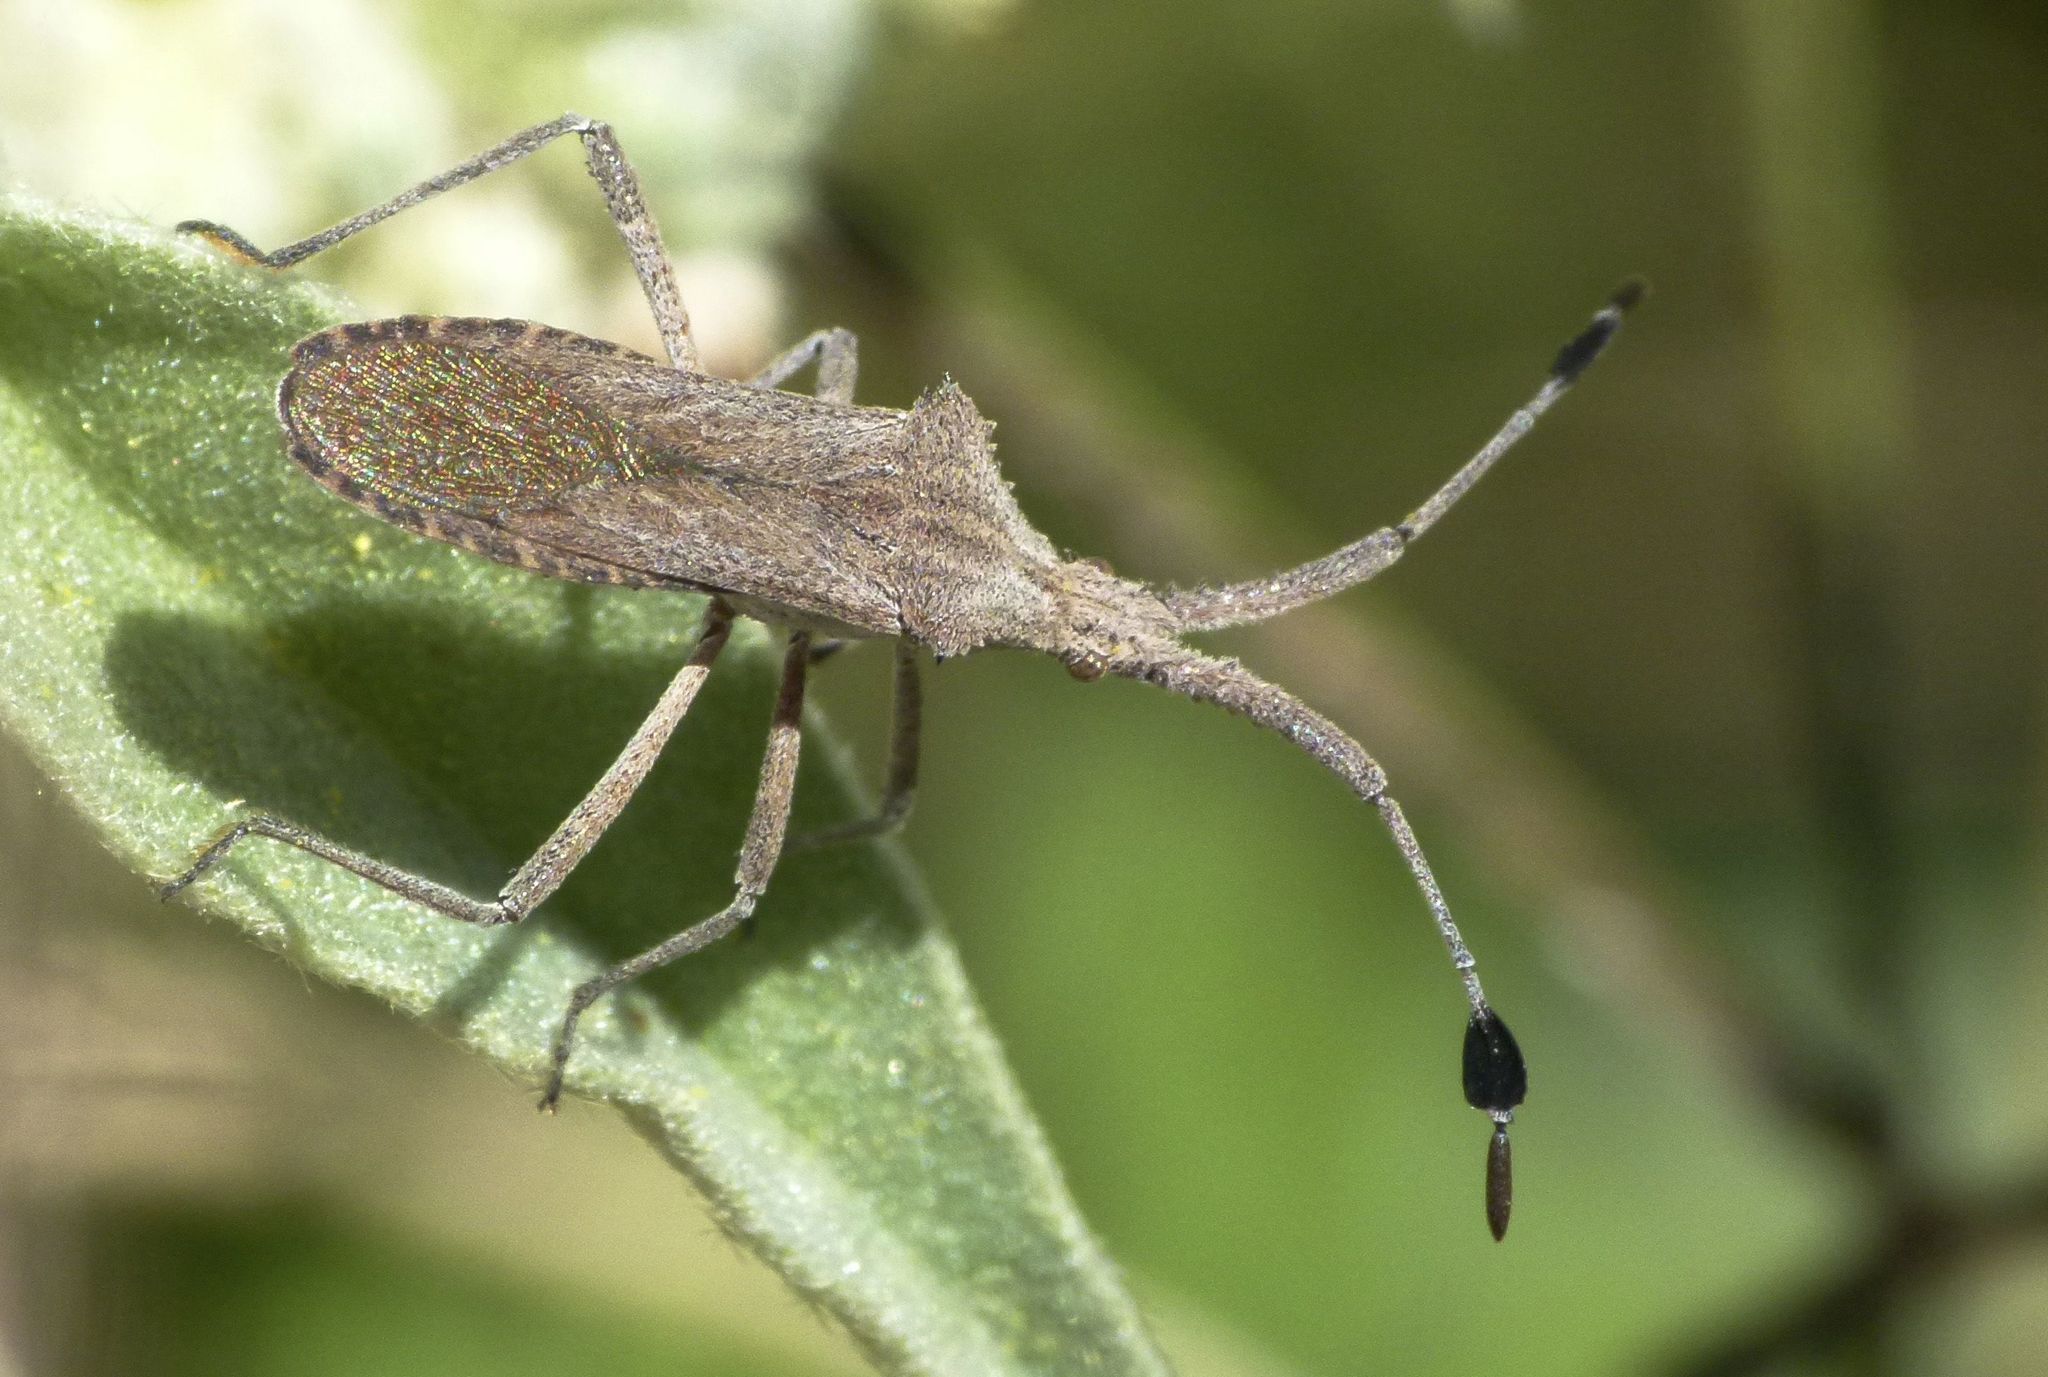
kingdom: Animalia
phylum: Arthropoda
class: Insecta
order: Hemiptera
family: Coreidae
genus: Chariesterus
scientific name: Chariesterus antennator
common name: Flat horned coreid
